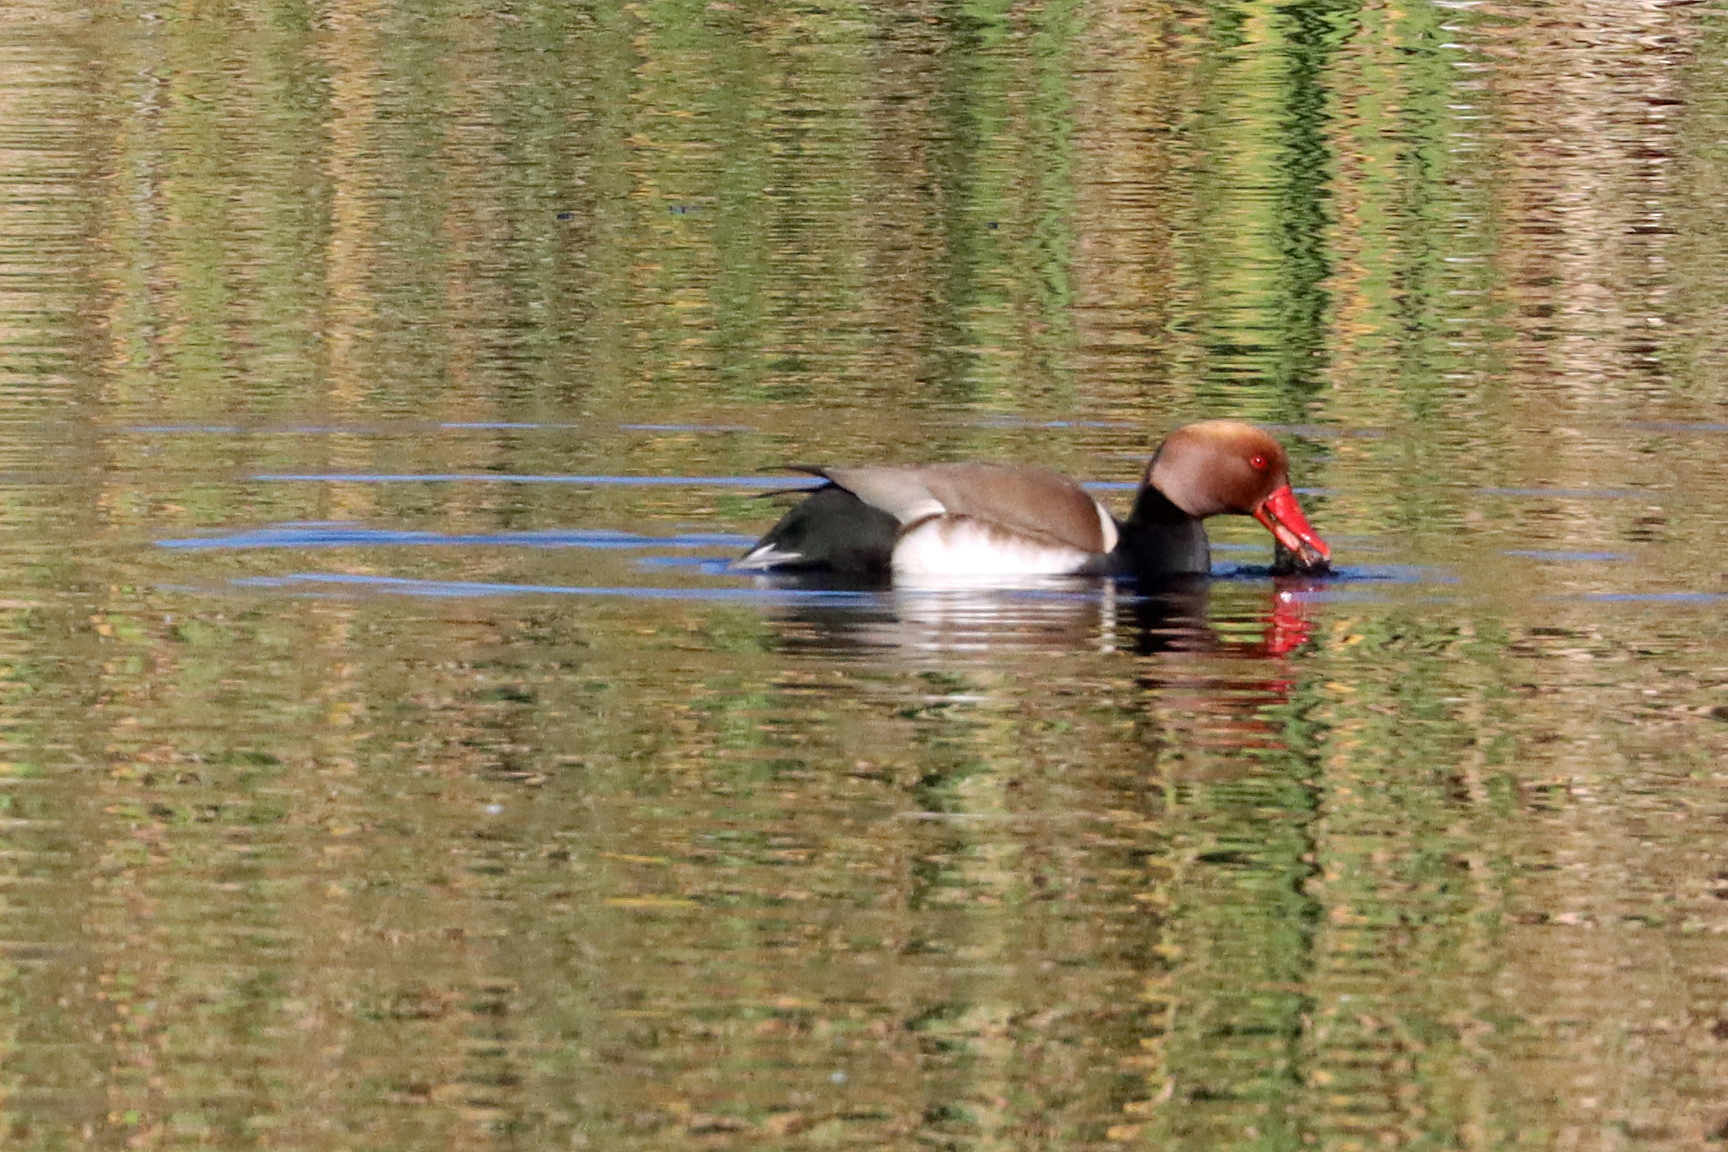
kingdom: Animalia
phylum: Chordata
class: Aves
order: Anseriformes
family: Anatidae
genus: Netta
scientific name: Netta rufina
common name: Red-crested pochard
